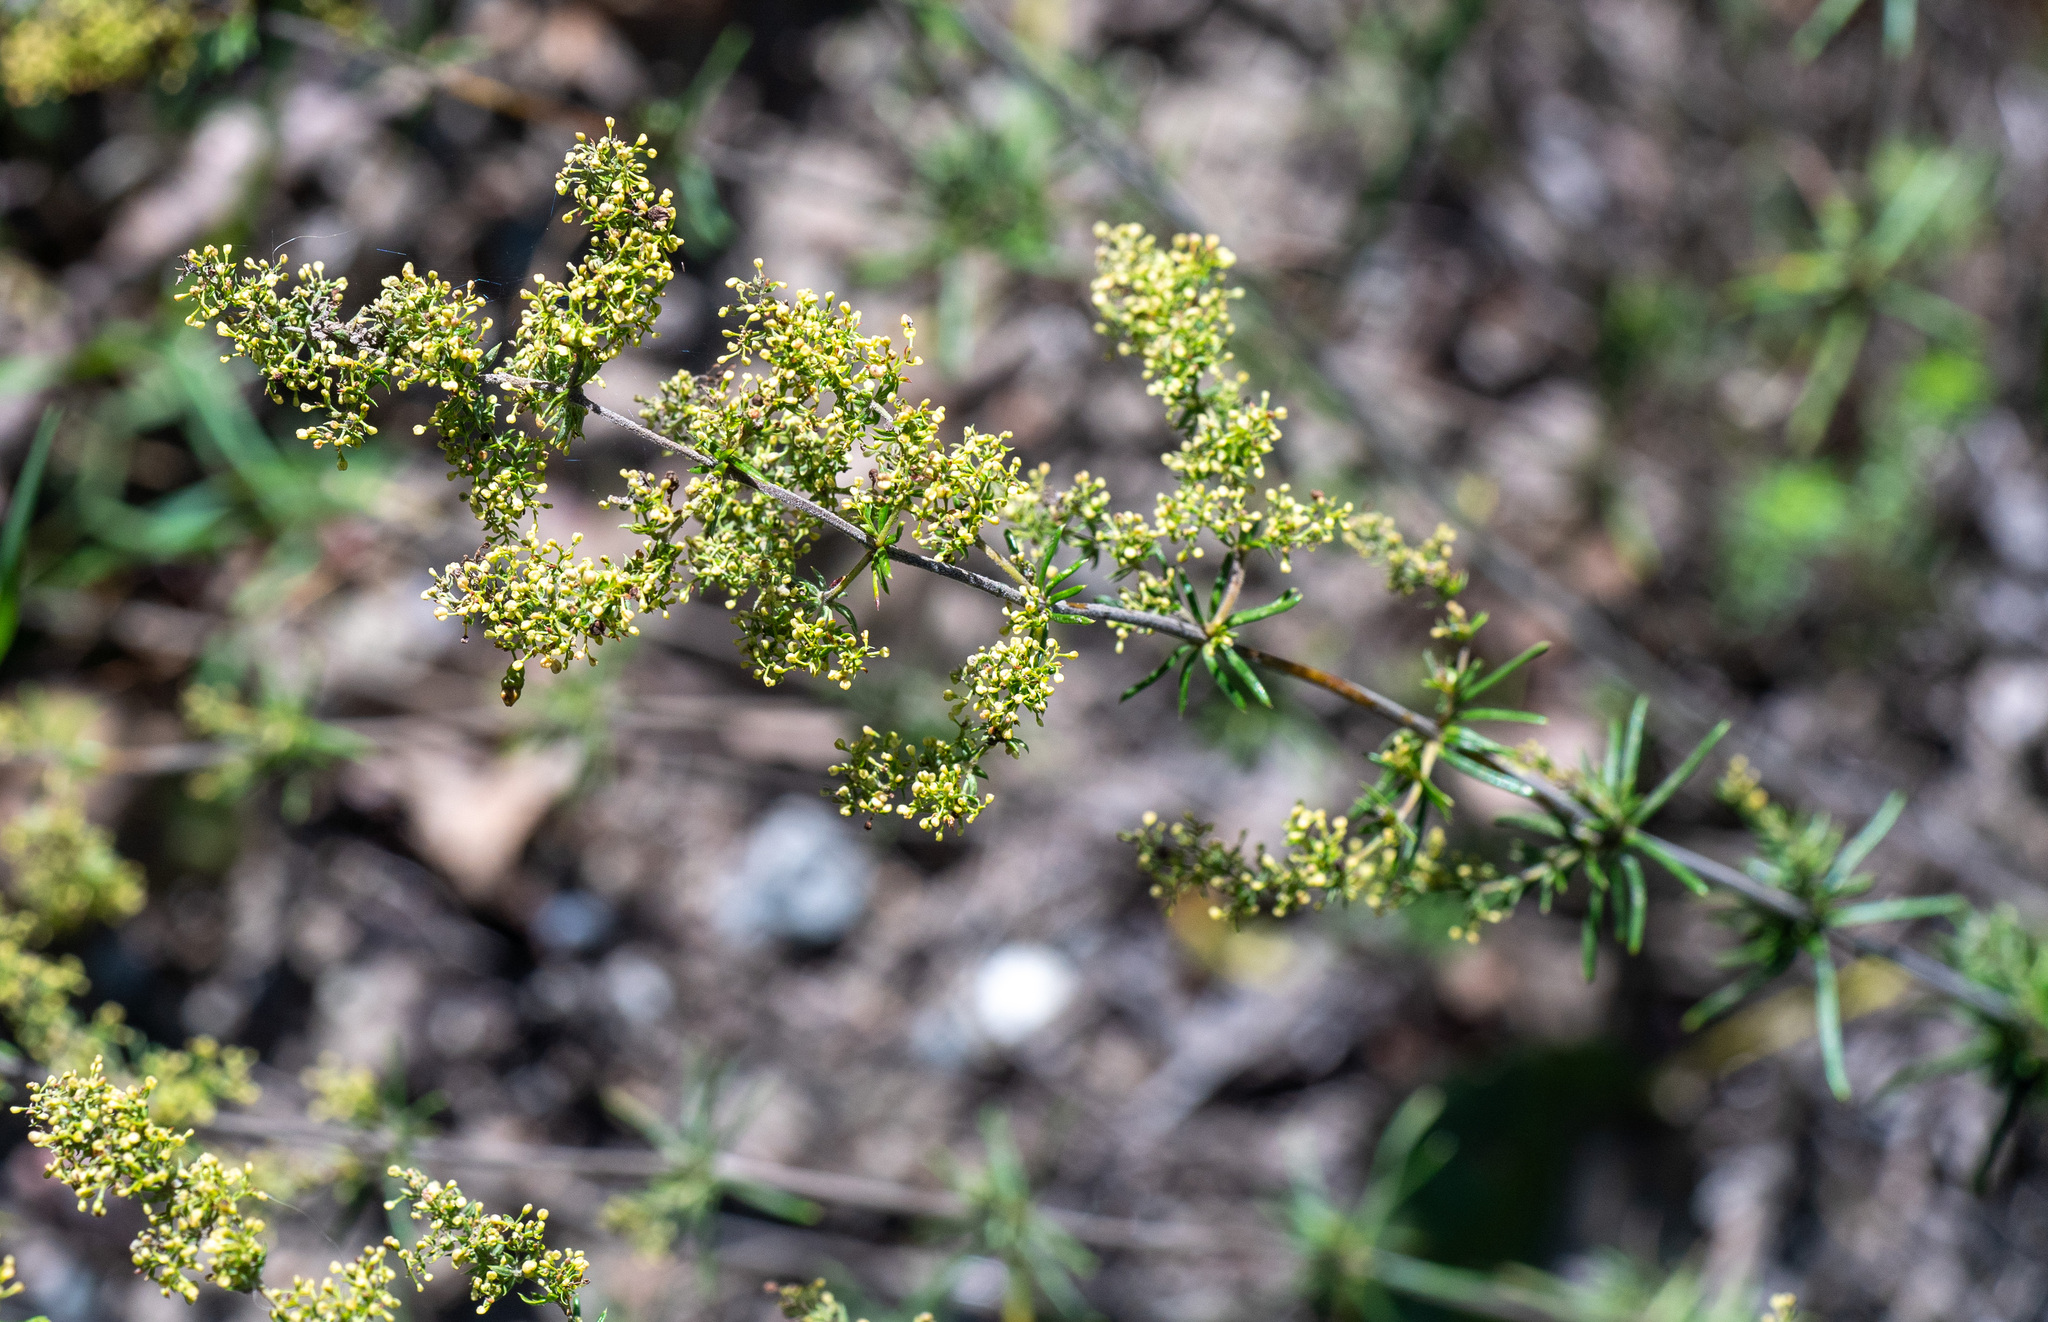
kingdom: Plantae
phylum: Tracheophyta
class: Magnoliopsida
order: Gentianales
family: Rubiaceae
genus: Galium
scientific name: Galium verum
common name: Lady's bedstraw
